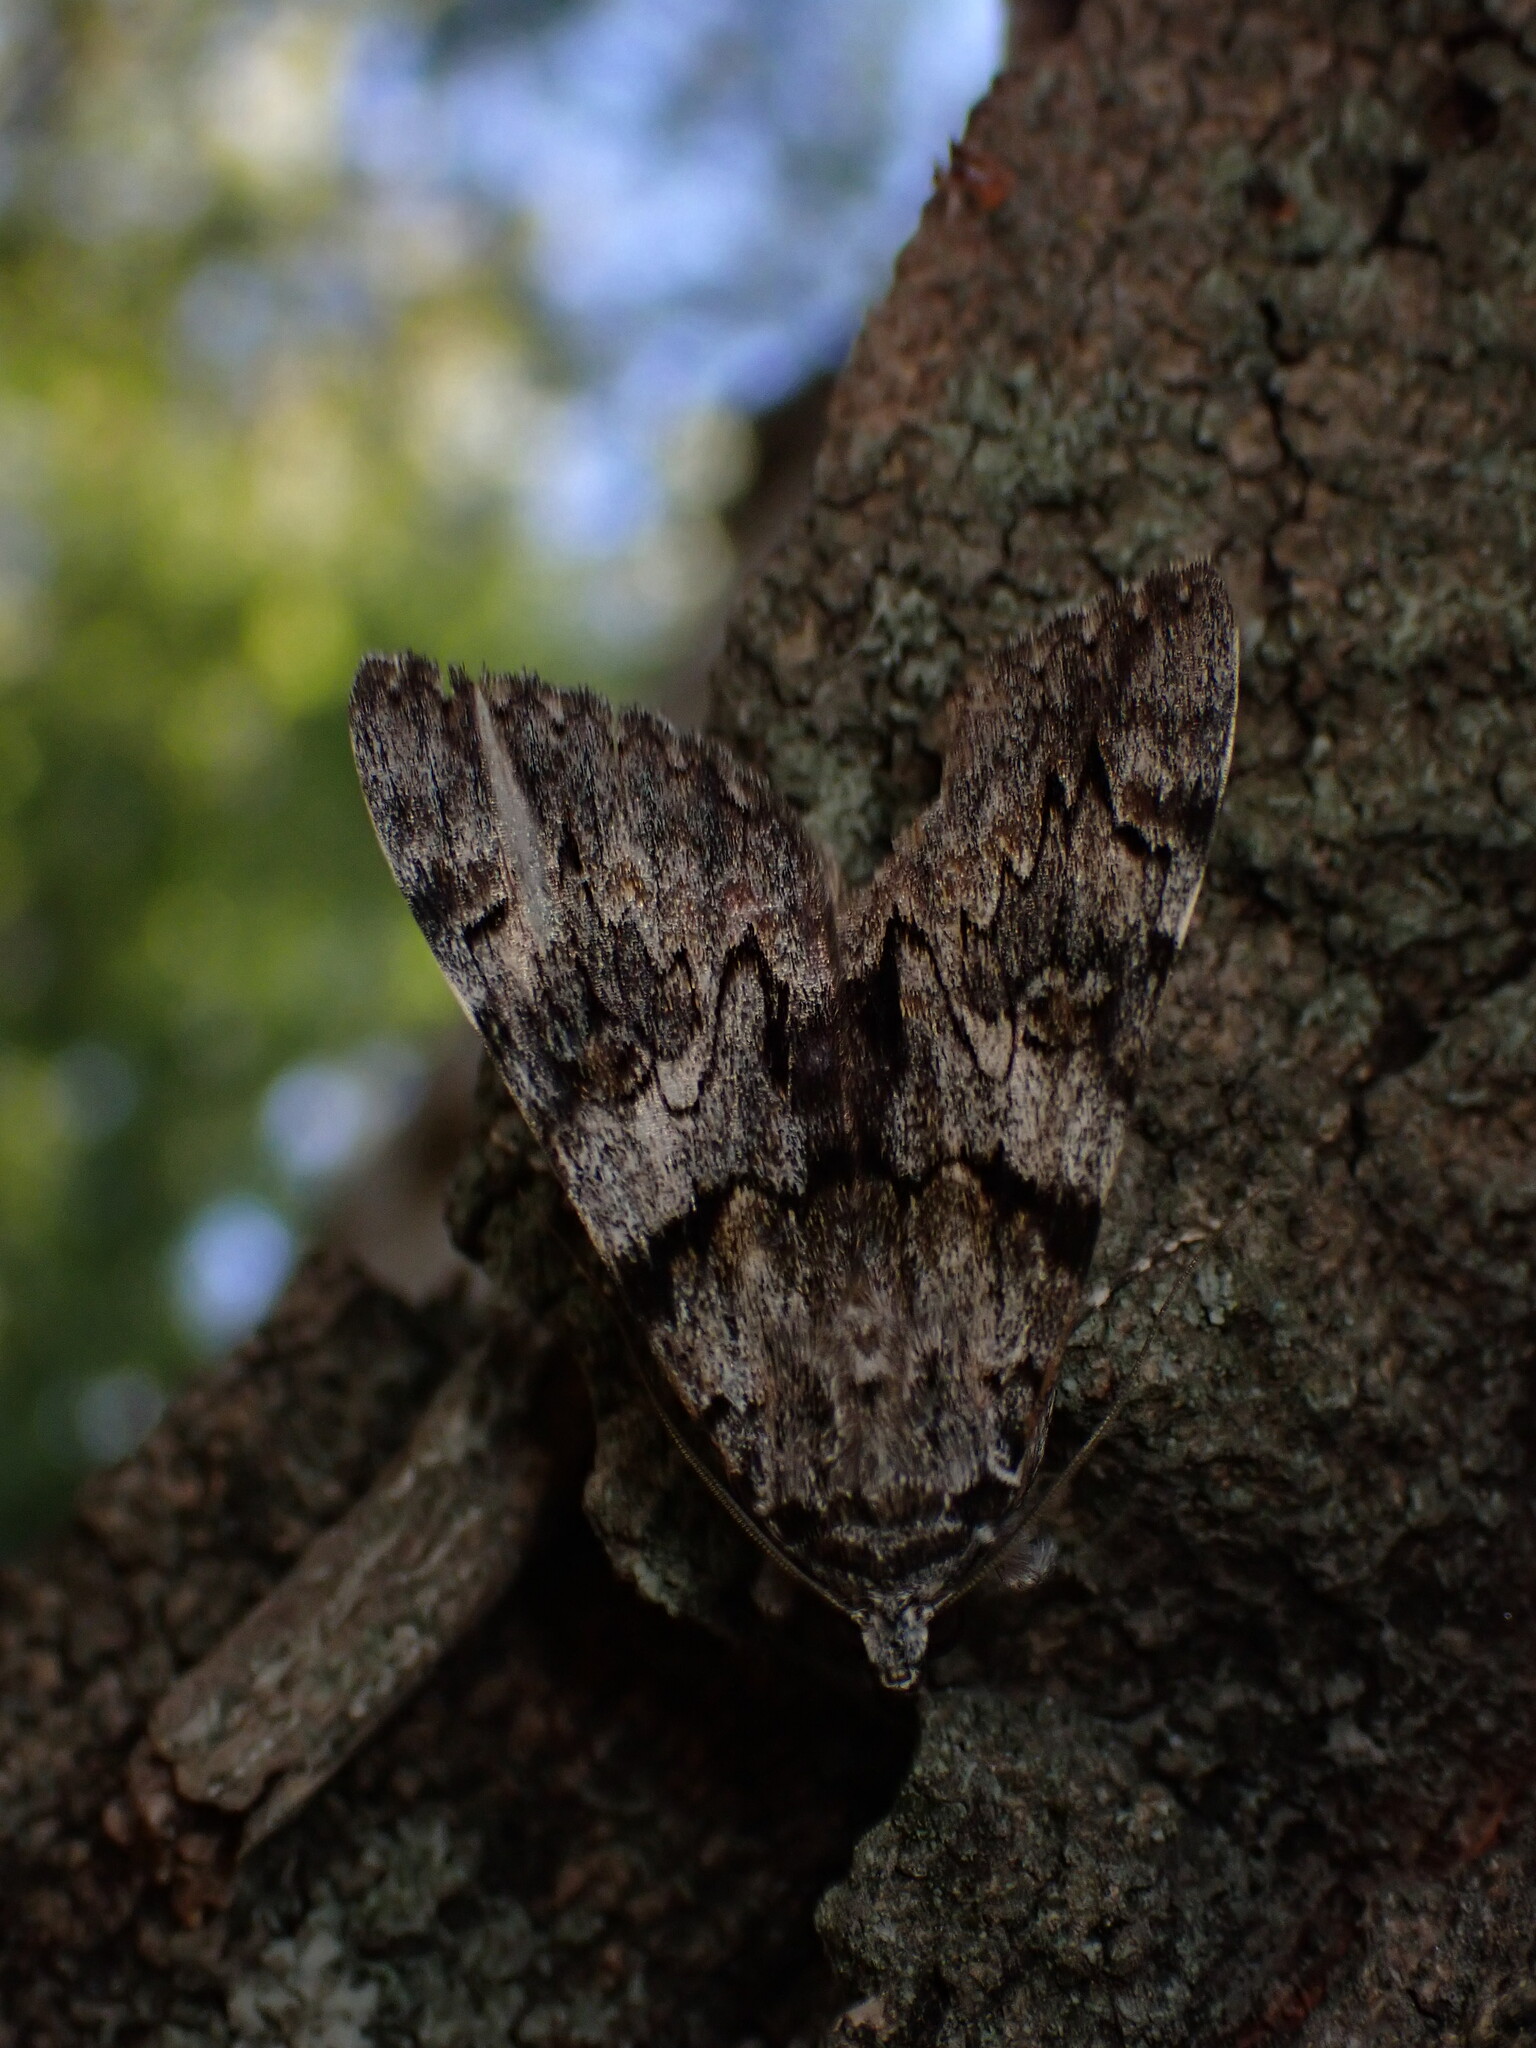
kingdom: Animalia
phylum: Arthropoda
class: Insecta
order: Lepidoptera
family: Erebidae
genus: Catocala
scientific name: Catocala nymphagoga
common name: Oak yellow underwing
